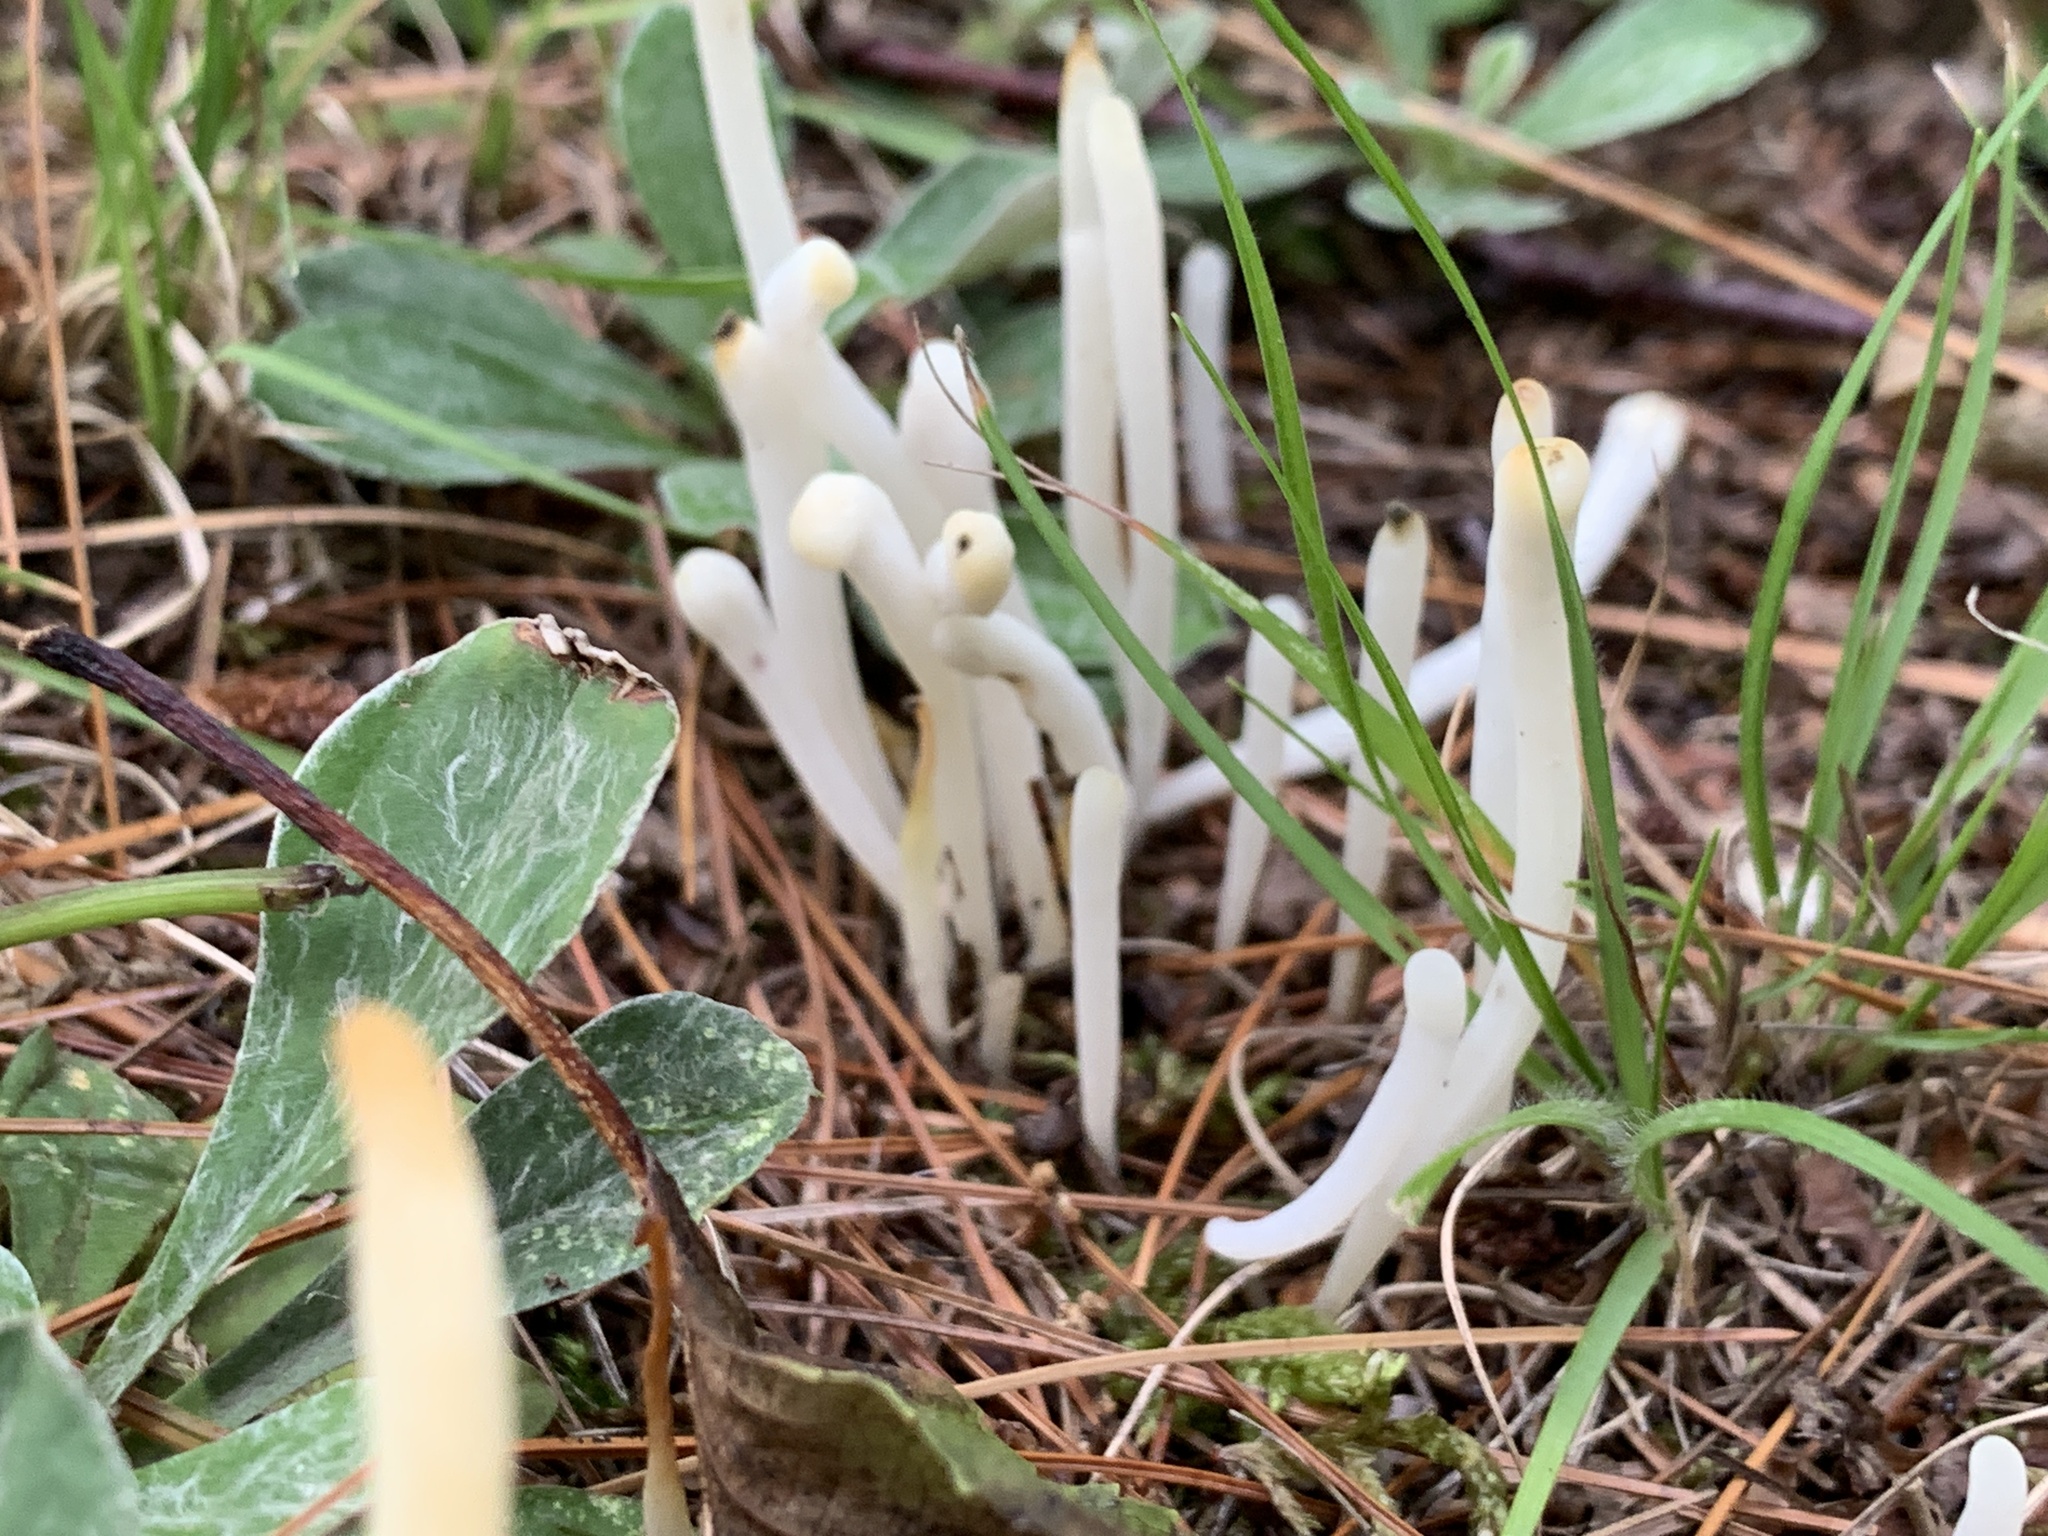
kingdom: Fungi
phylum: Basidiomycota
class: Agaricomycetes
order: Agaricales
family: Clavariaceae
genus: Clavaria
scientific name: Clavaria fragilis
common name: White spindles
